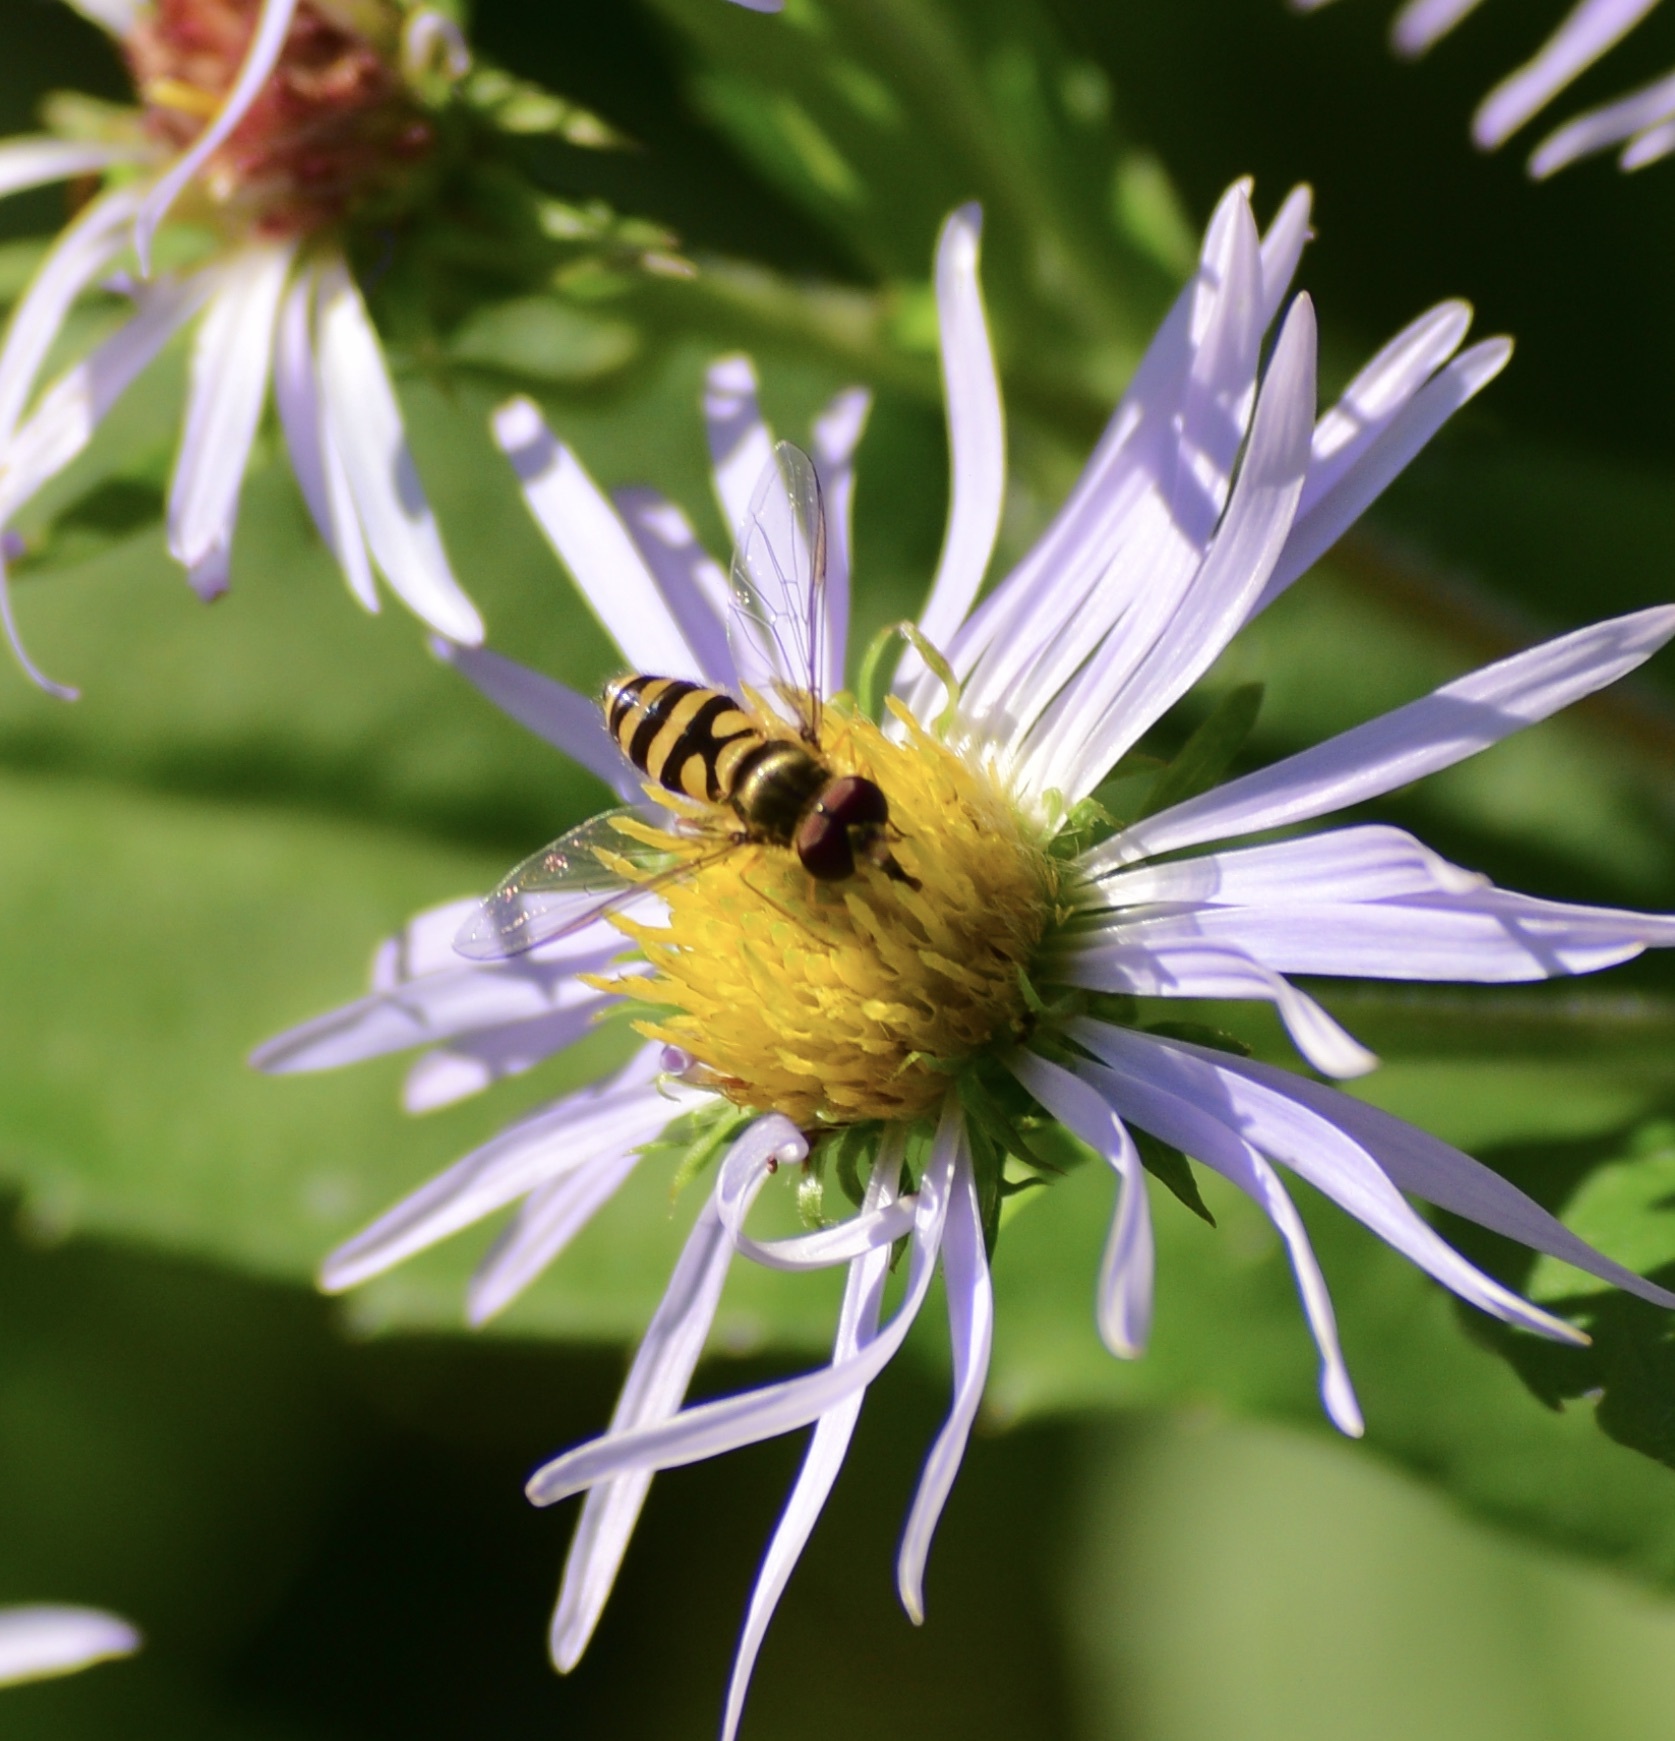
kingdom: Animalia
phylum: Arthropoda
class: Insecta
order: Diptera
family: Syrphidae
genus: Syrphus
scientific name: Syrphus
